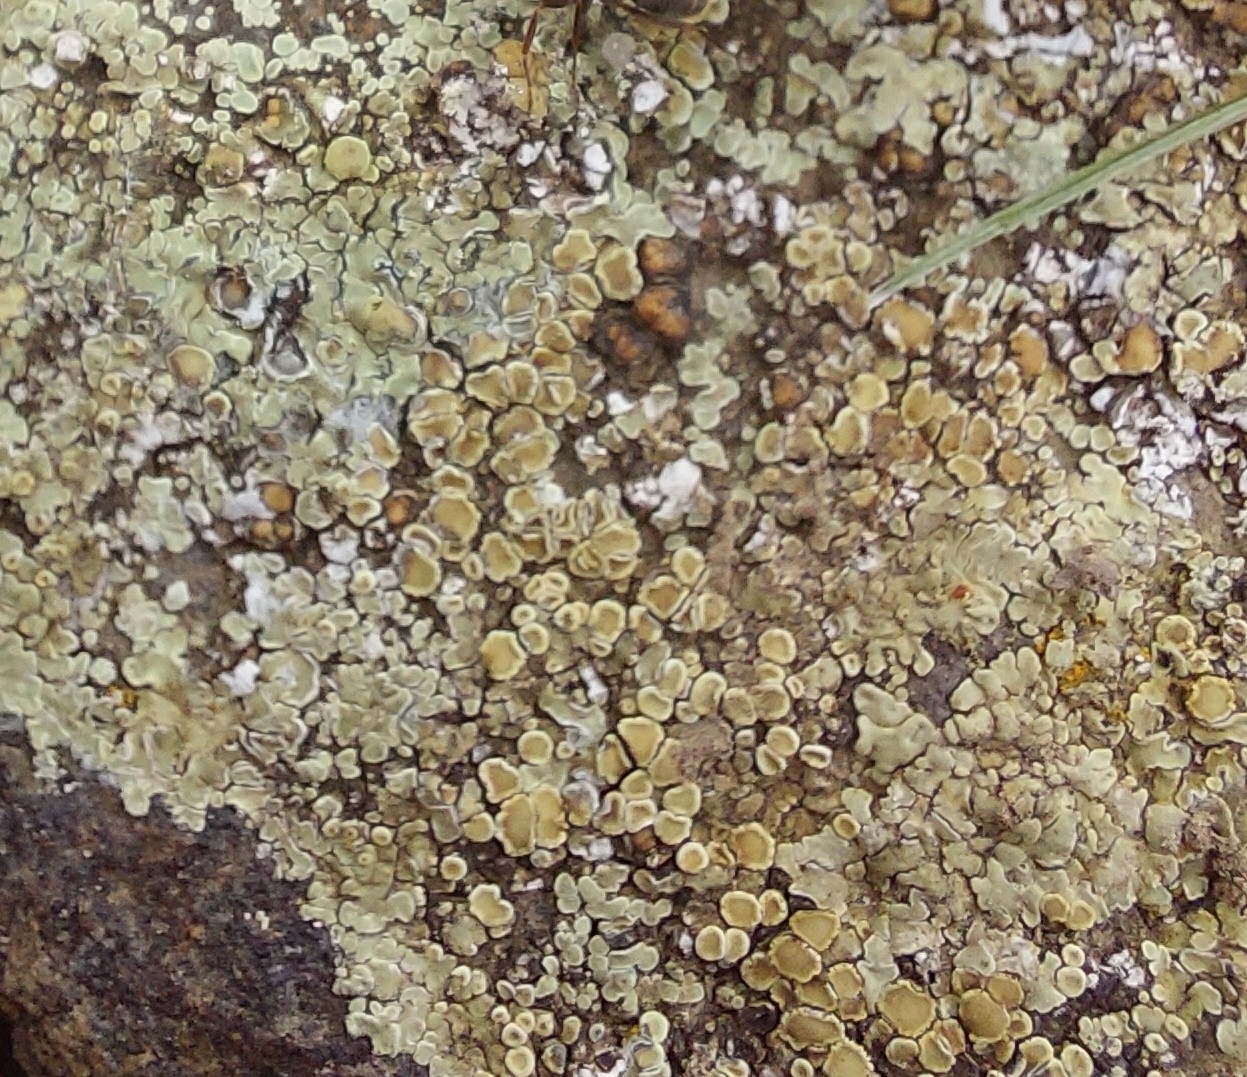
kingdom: Fungi
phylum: Ascomycota
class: Lecanoromycetes
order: Lecanorales
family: Lecanoraceae
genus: Protoparmeliopsis
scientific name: Protoparmeliopsis muralis
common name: Stonewall rim lichen
